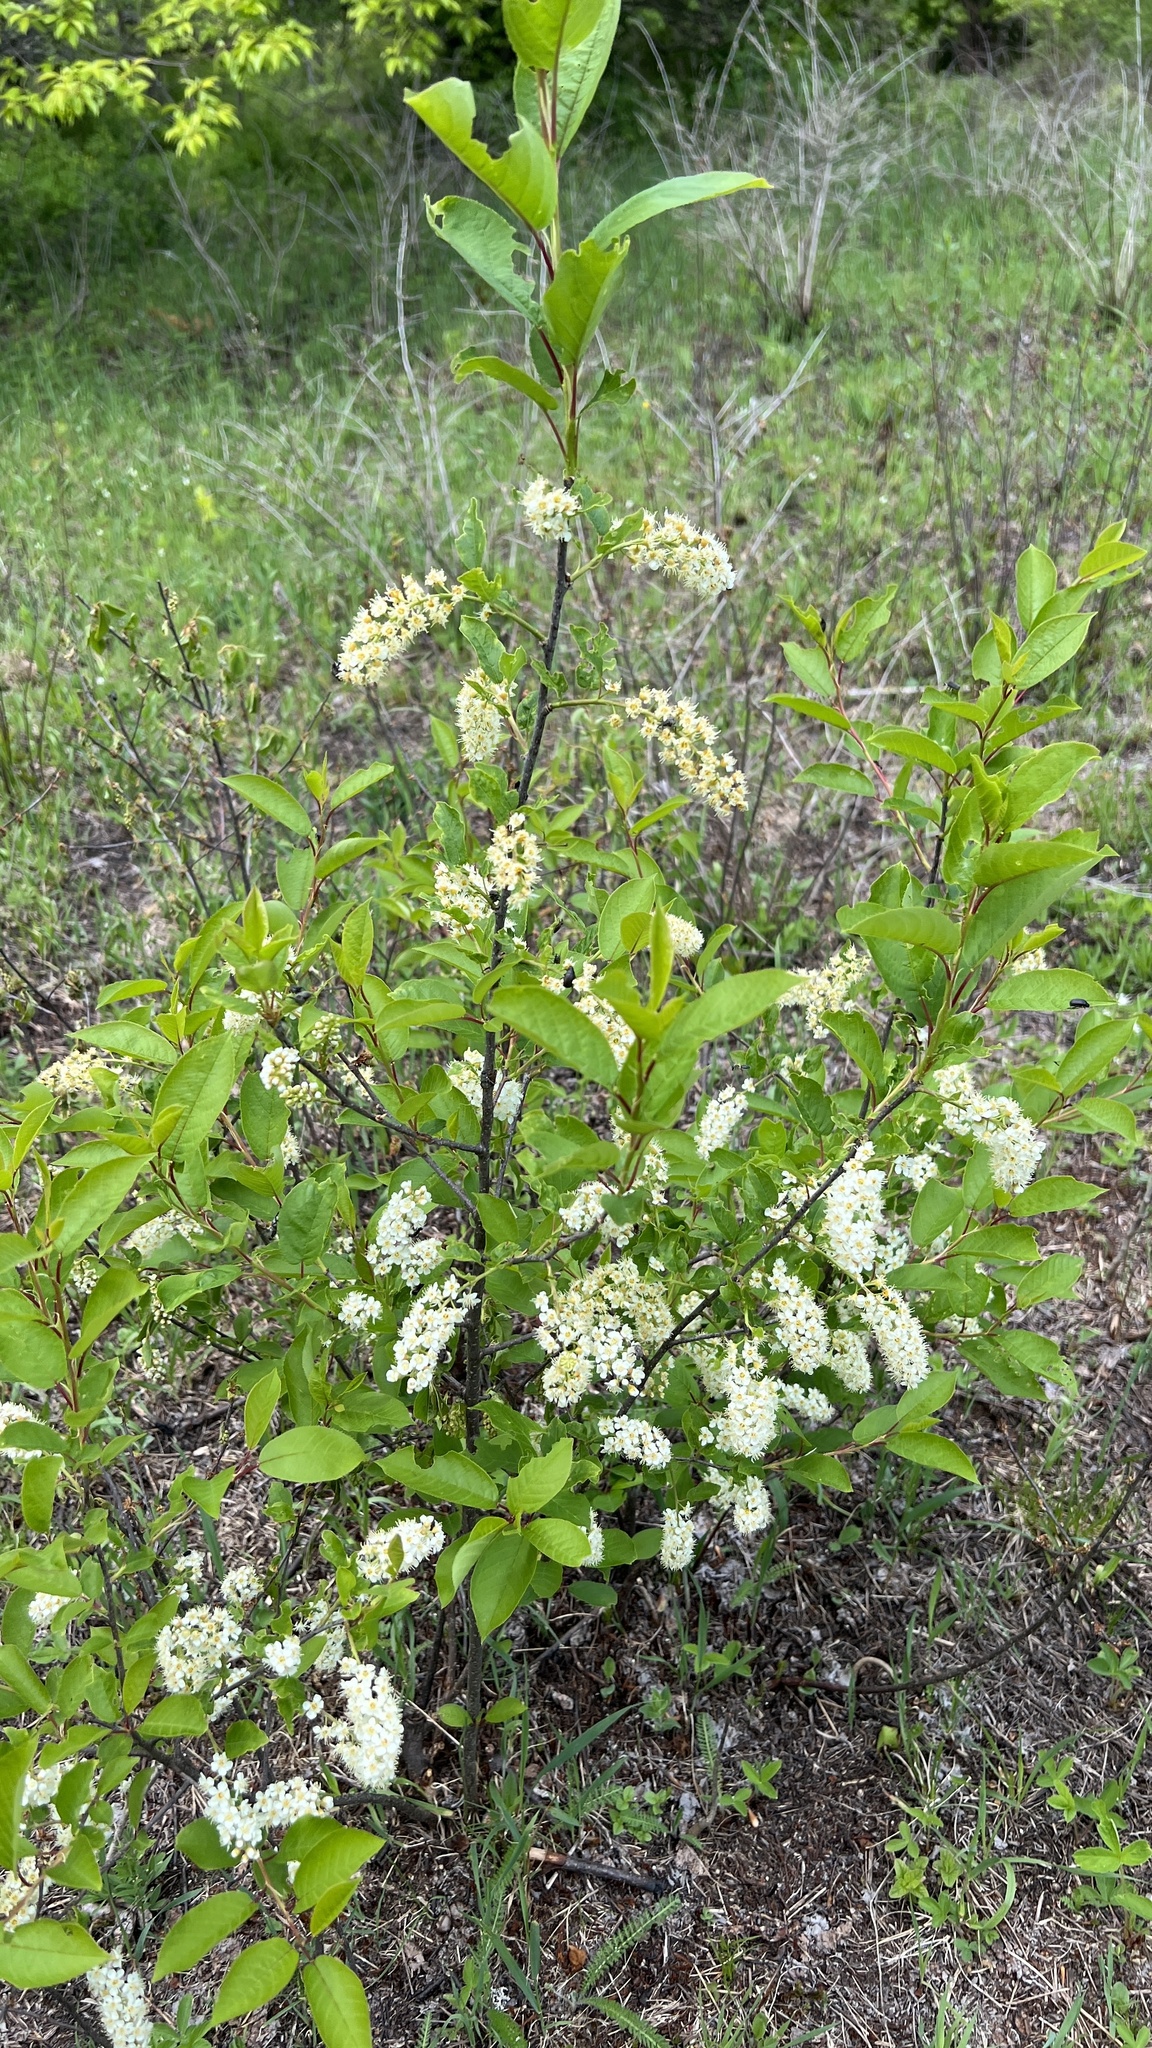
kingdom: Plantae
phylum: Tracheophyta
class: Magnoliopsida
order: Rosales
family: Rosaceae
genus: Prunus
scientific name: Prunus virginiana
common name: Chokecherry
